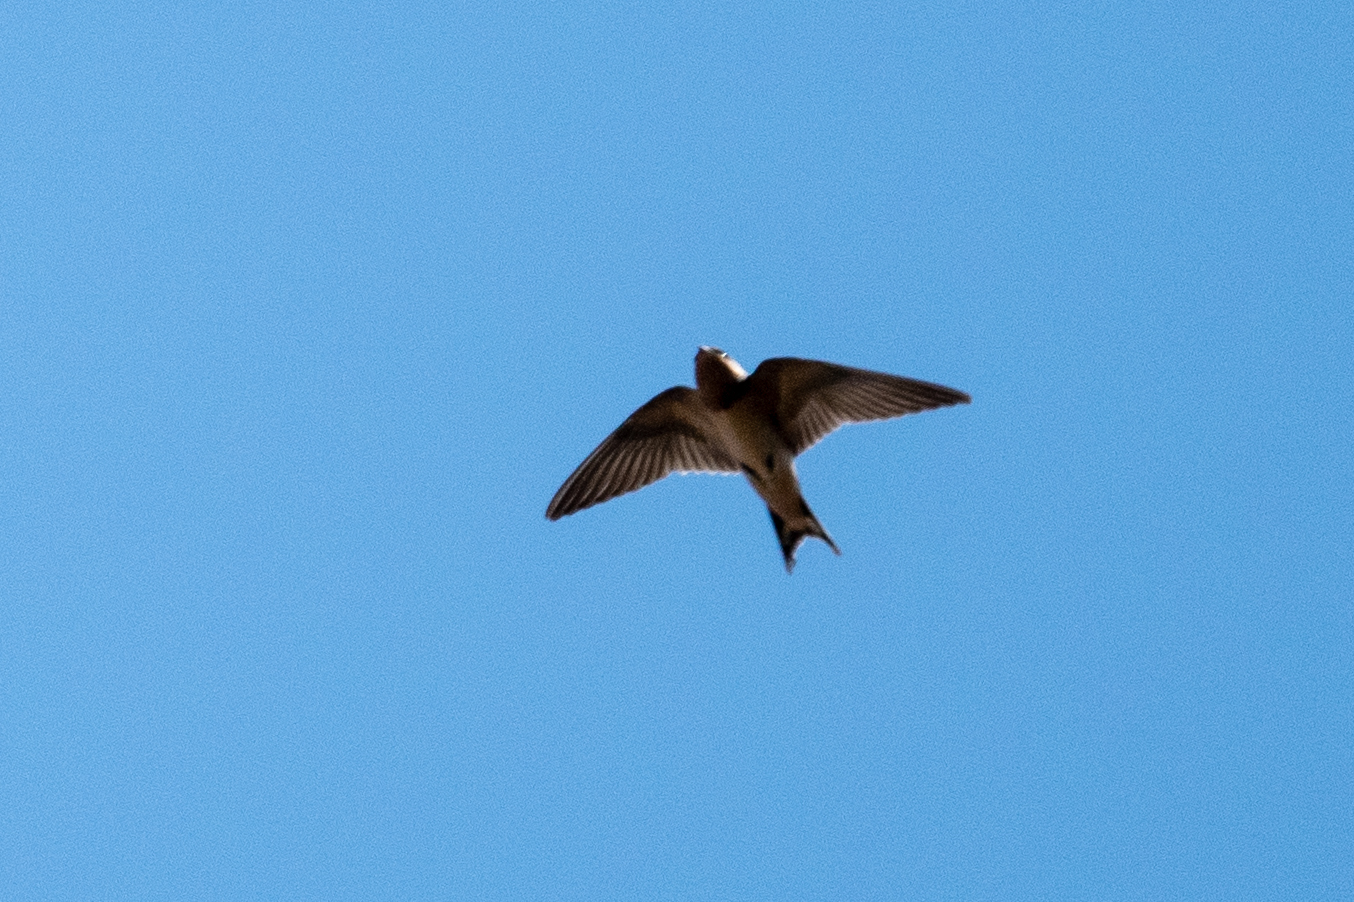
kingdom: Animalia
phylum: Chordata
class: Aves
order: Passeriformes
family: Hirundinidae
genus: Hirundo
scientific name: Hirundo rustica
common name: Barn swallow
